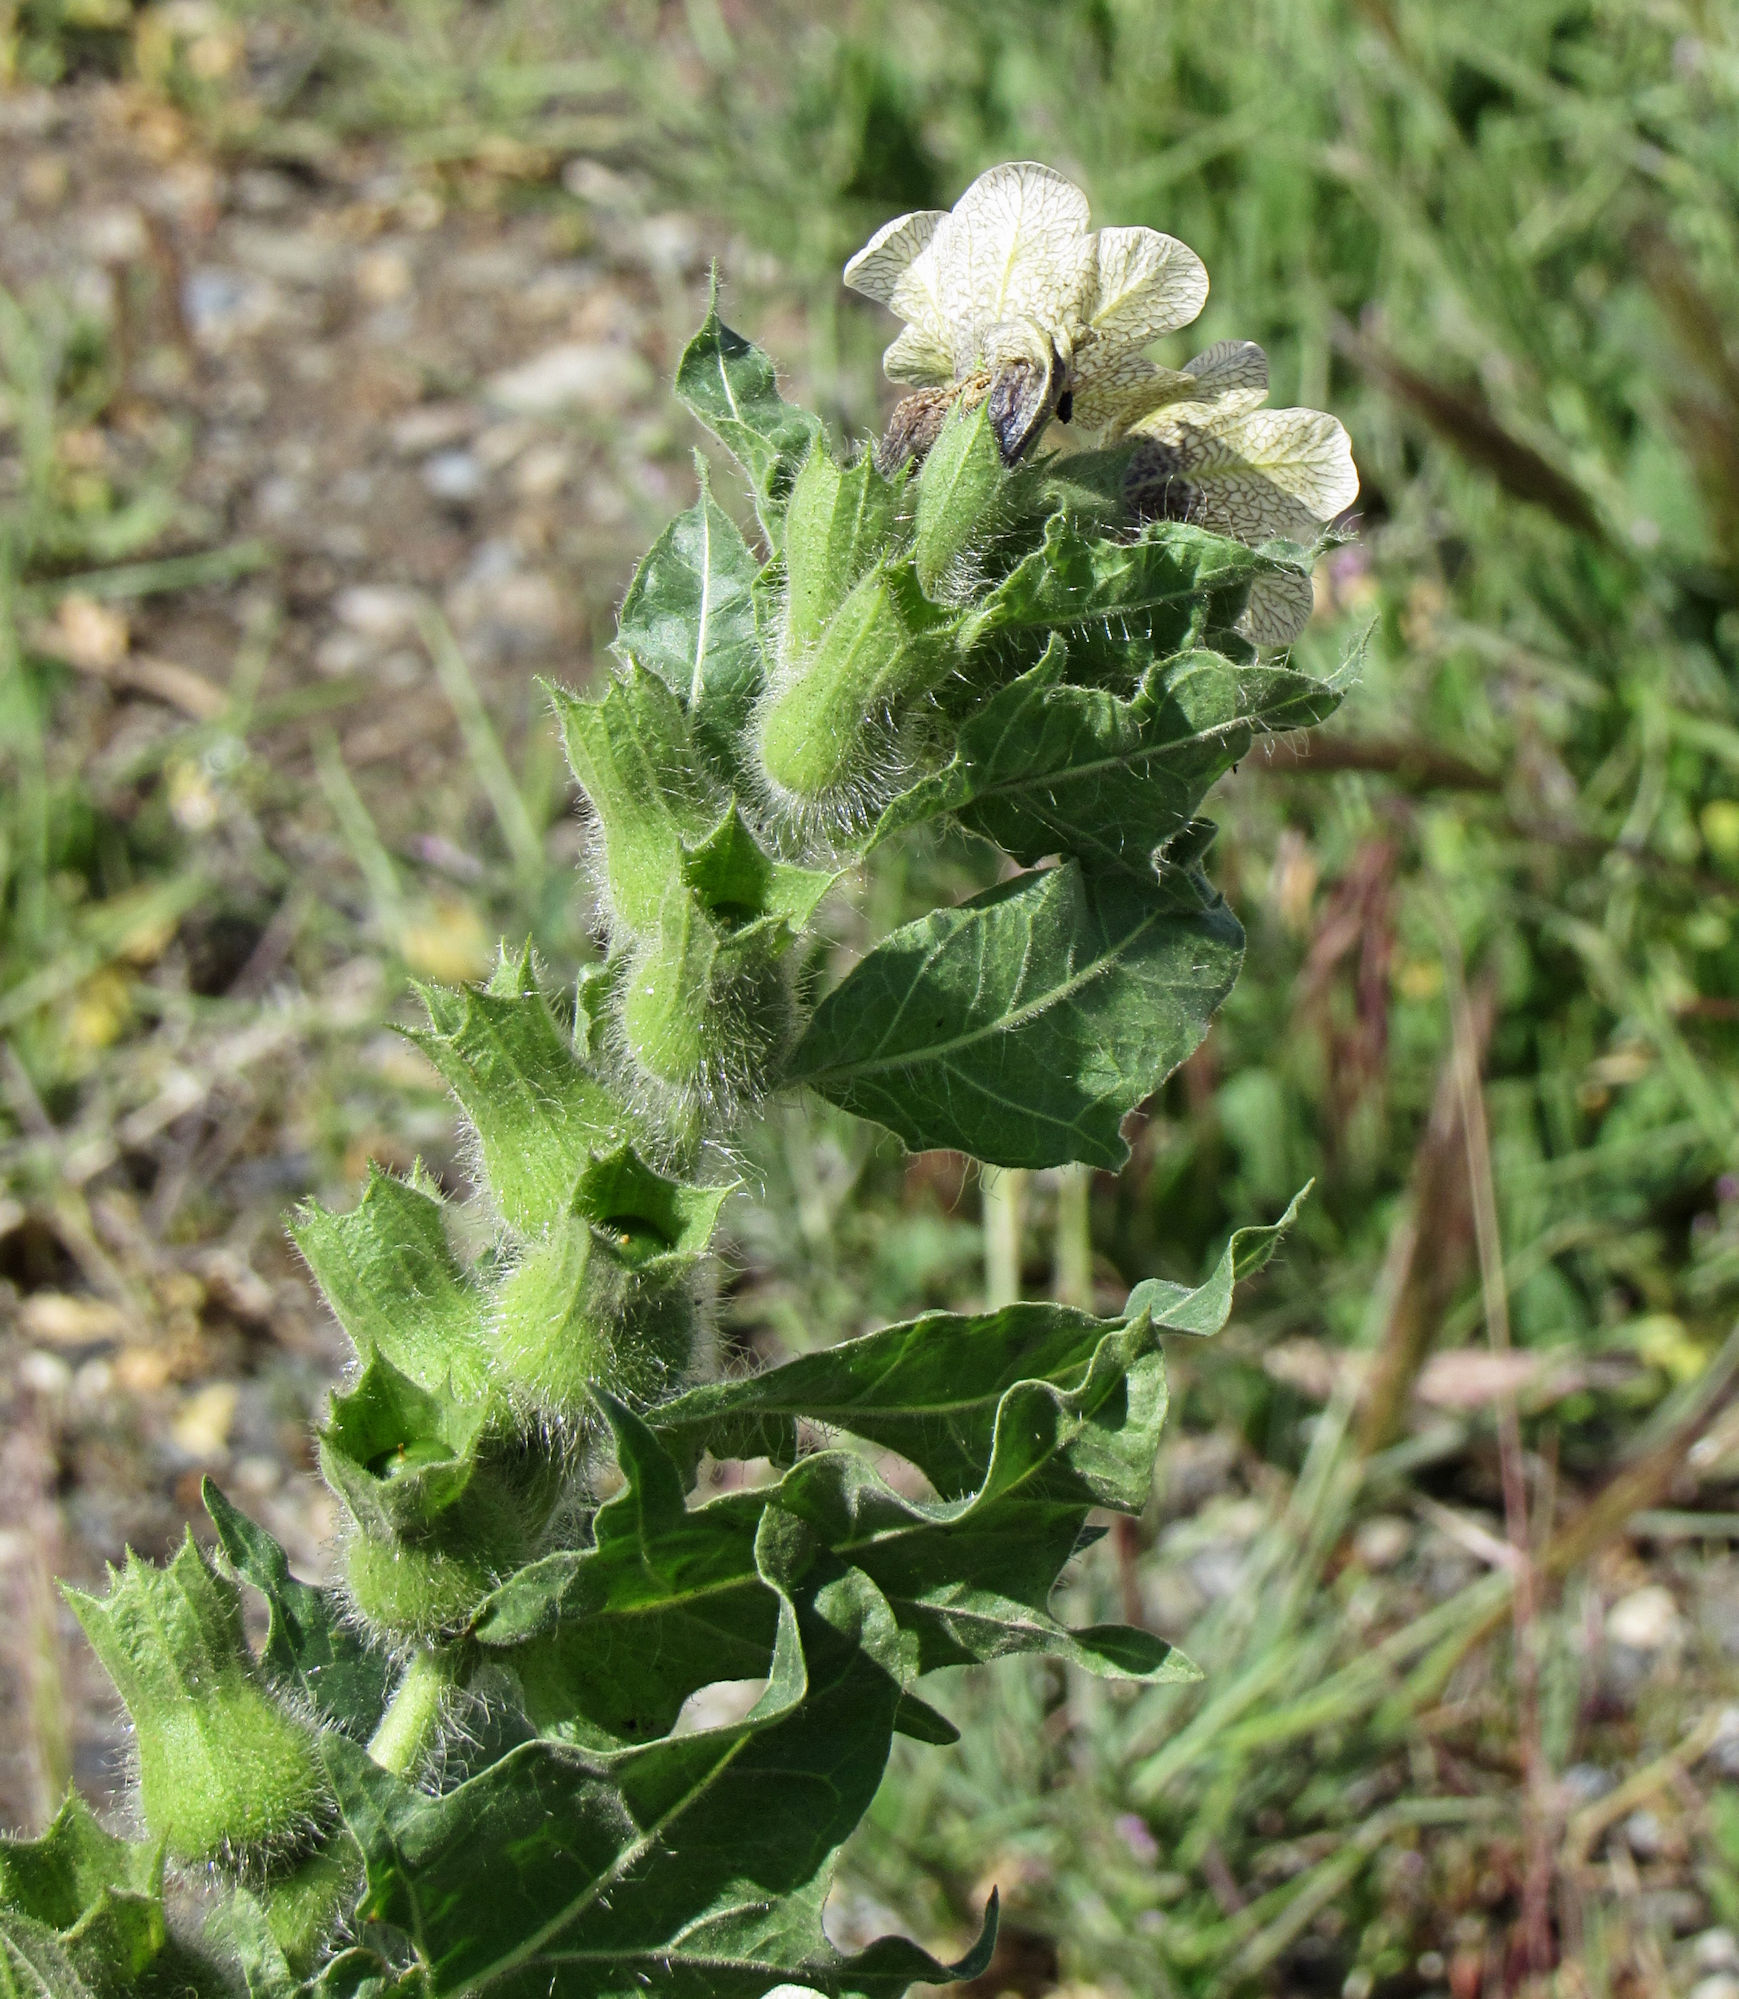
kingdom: Plantae
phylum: Tracheophyta
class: Magnoliopsida
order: Solanales
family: Solanaceae
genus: Hyoscyamus
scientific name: Hyoscyamus niger
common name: Henbane
